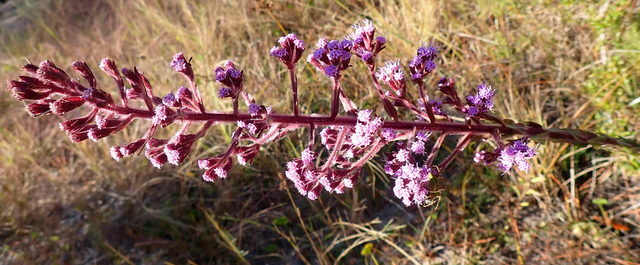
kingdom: Plantae
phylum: Tracheophyta
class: Magnoliopsida
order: Asterales
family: Asteraceae
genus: Carphephorus
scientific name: Carphephorus paniculatus
